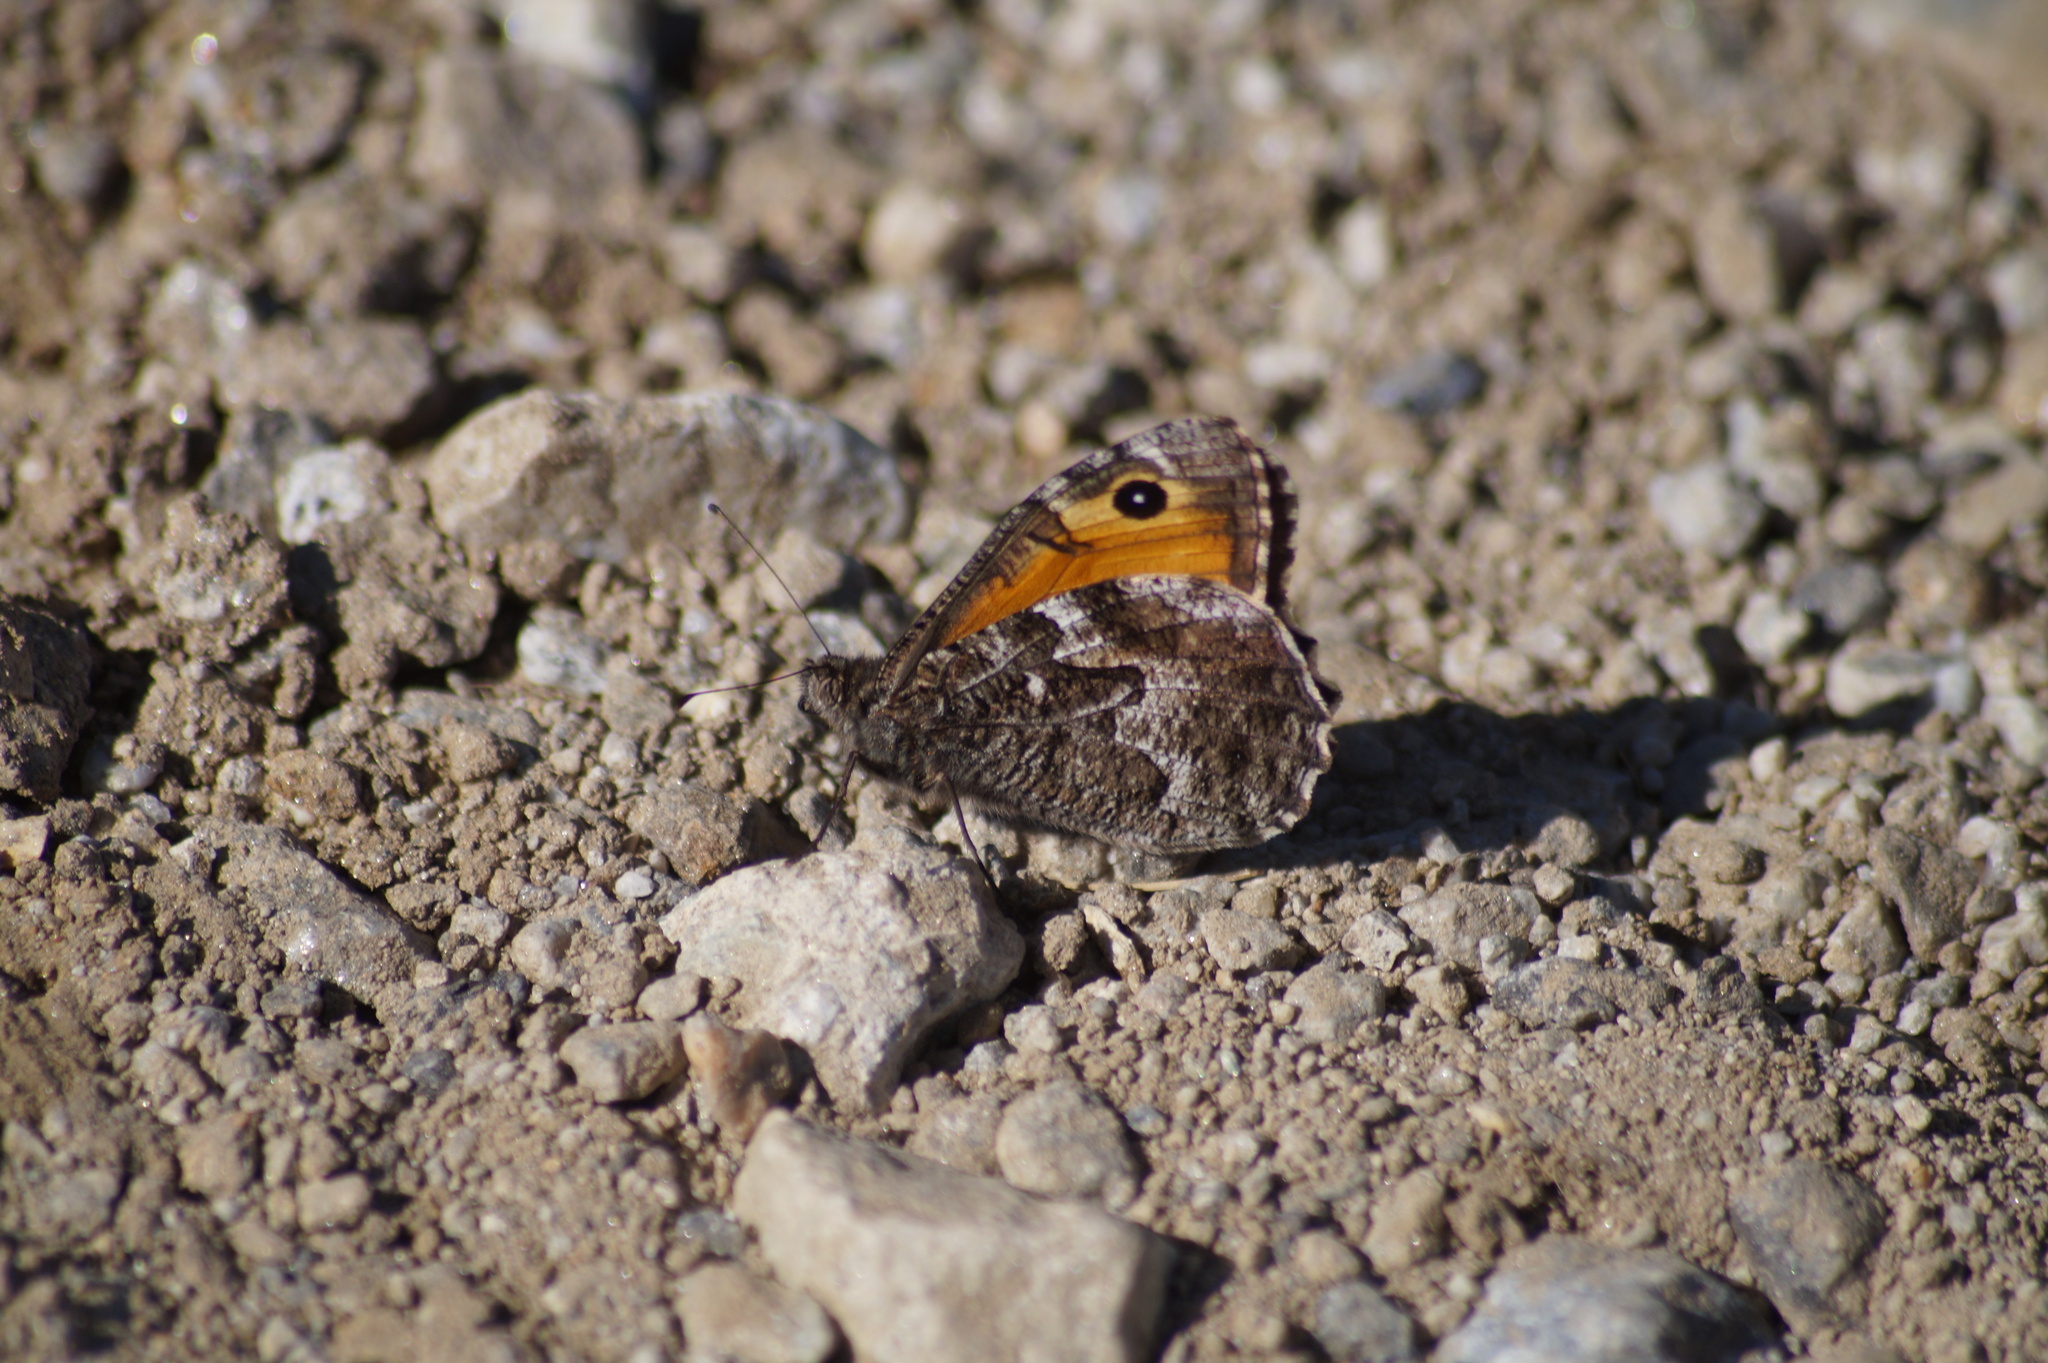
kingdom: Animalia
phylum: Arthropoda
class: Insecta
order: Lepidoptera
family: Nymphalidae
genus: Hipparchia
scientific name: Hipparchia semele
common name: Grayling
